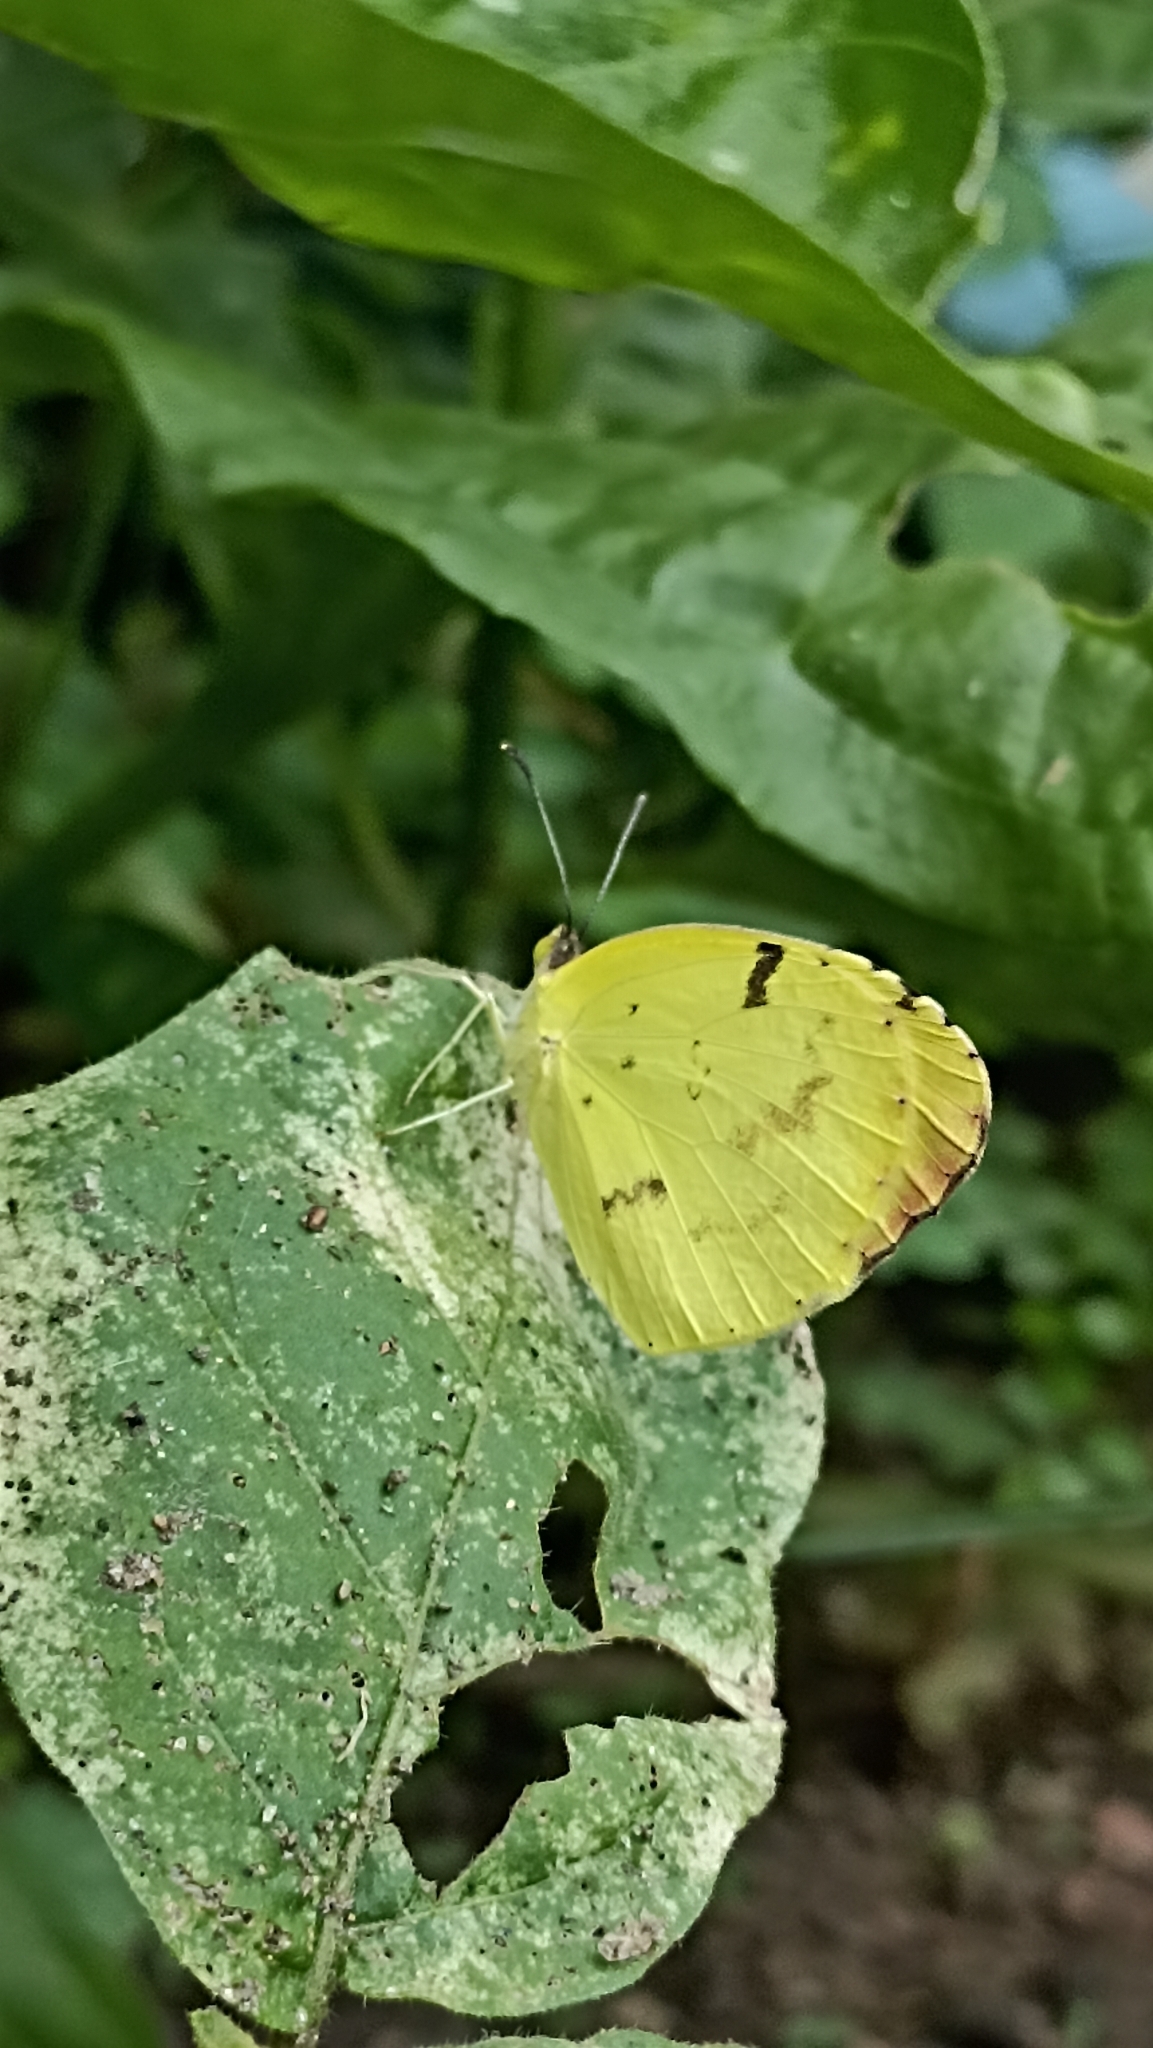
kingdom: Animalia
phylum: Arthropoda
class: Insecta
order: Lepidoptera
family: Pieridae
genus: Teriocolias
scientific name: Teriocolias
